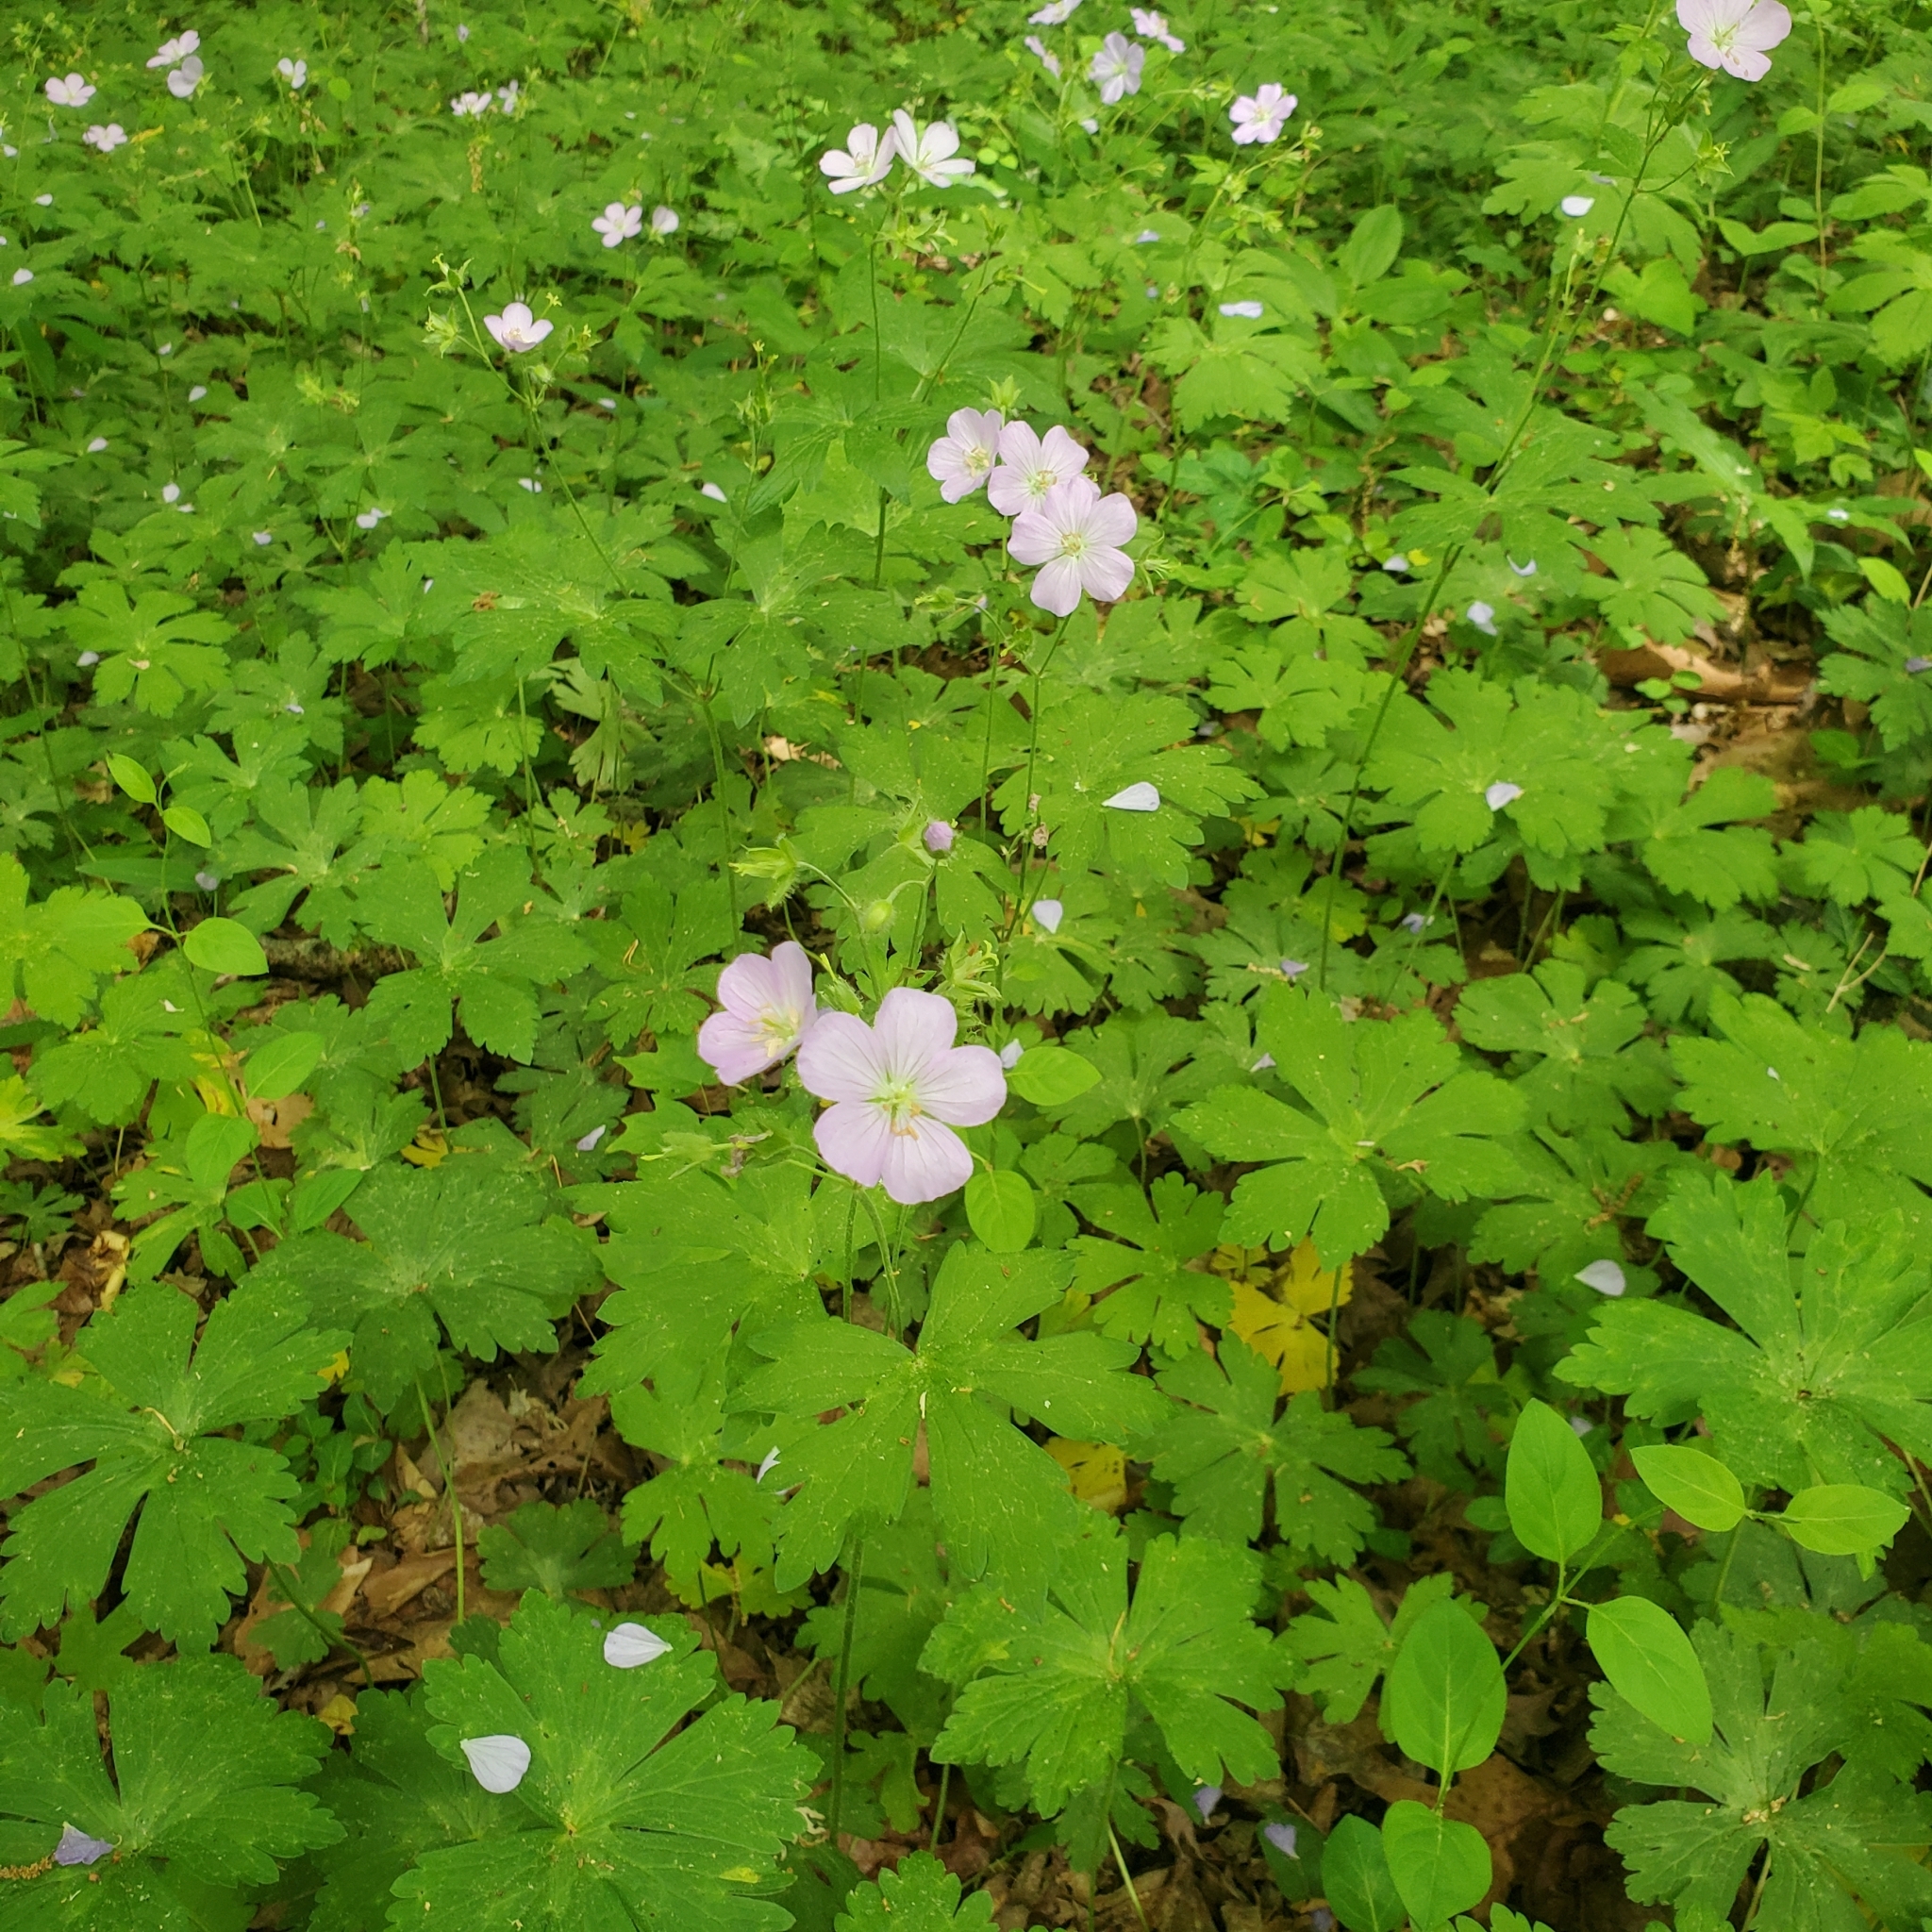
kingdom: Plantae
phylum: Tracheophyta
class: Magnoliopsida
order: Geraniales
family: Geraniaceae
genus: Geranium
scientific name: Geranium maculatum
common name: Spotted geranium
